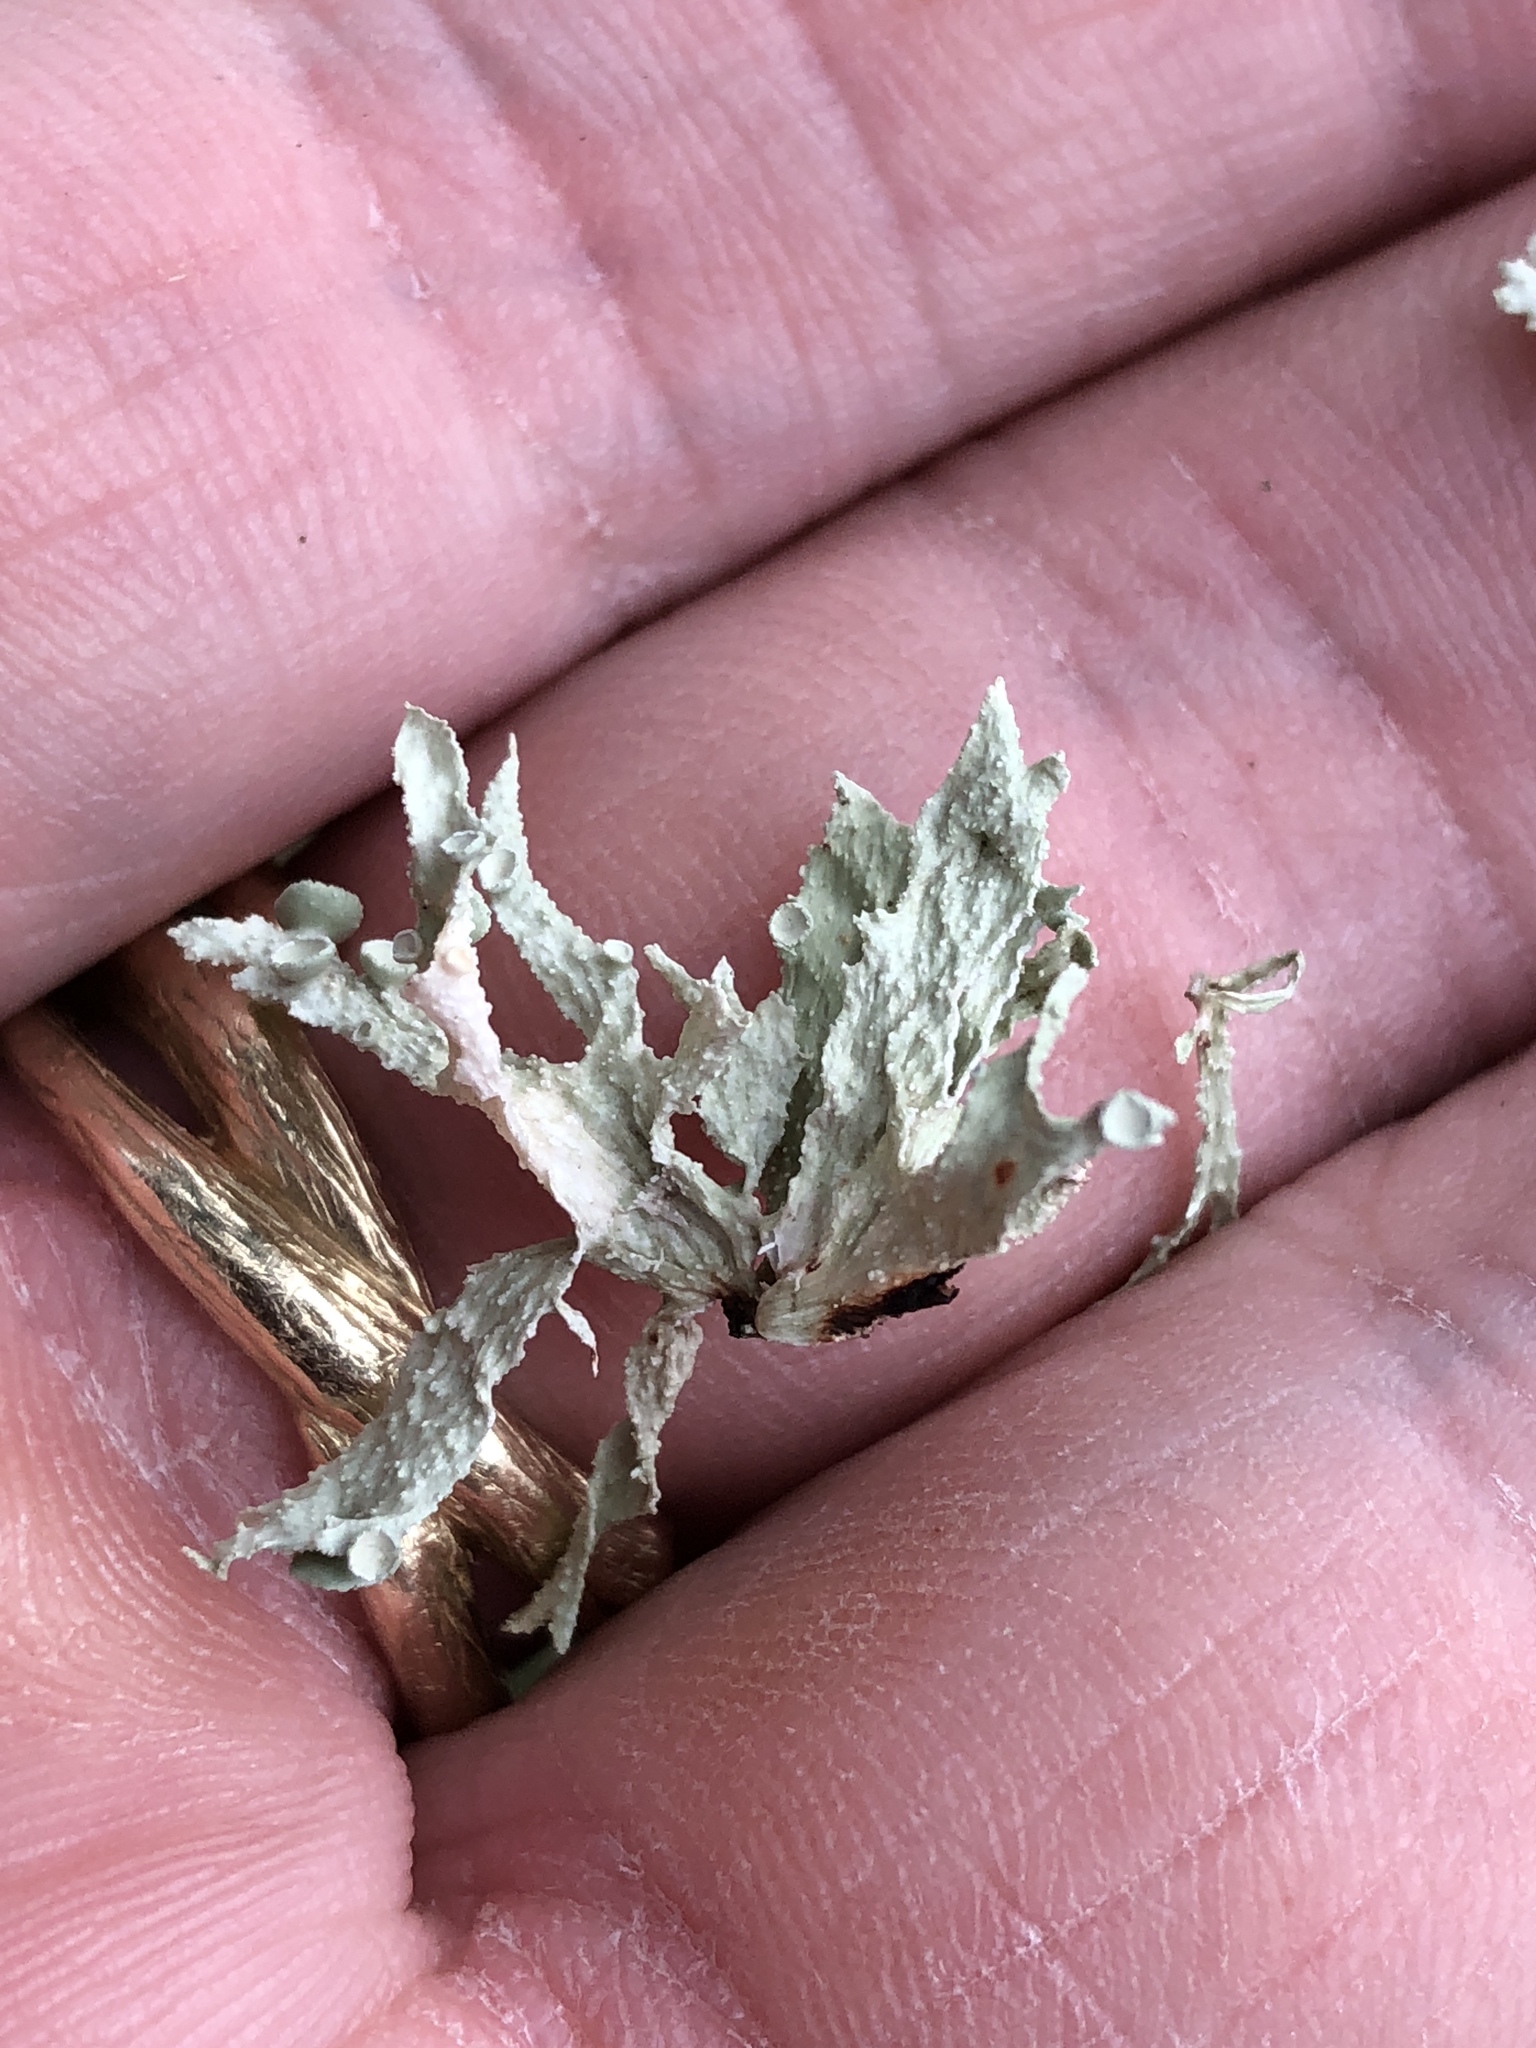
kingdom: Fungi
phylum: Ascomycota
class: Lecanoromycetes
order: Lecanorales
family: Ramalinaceae
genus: Ramalina
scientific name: Ramalina complanata
